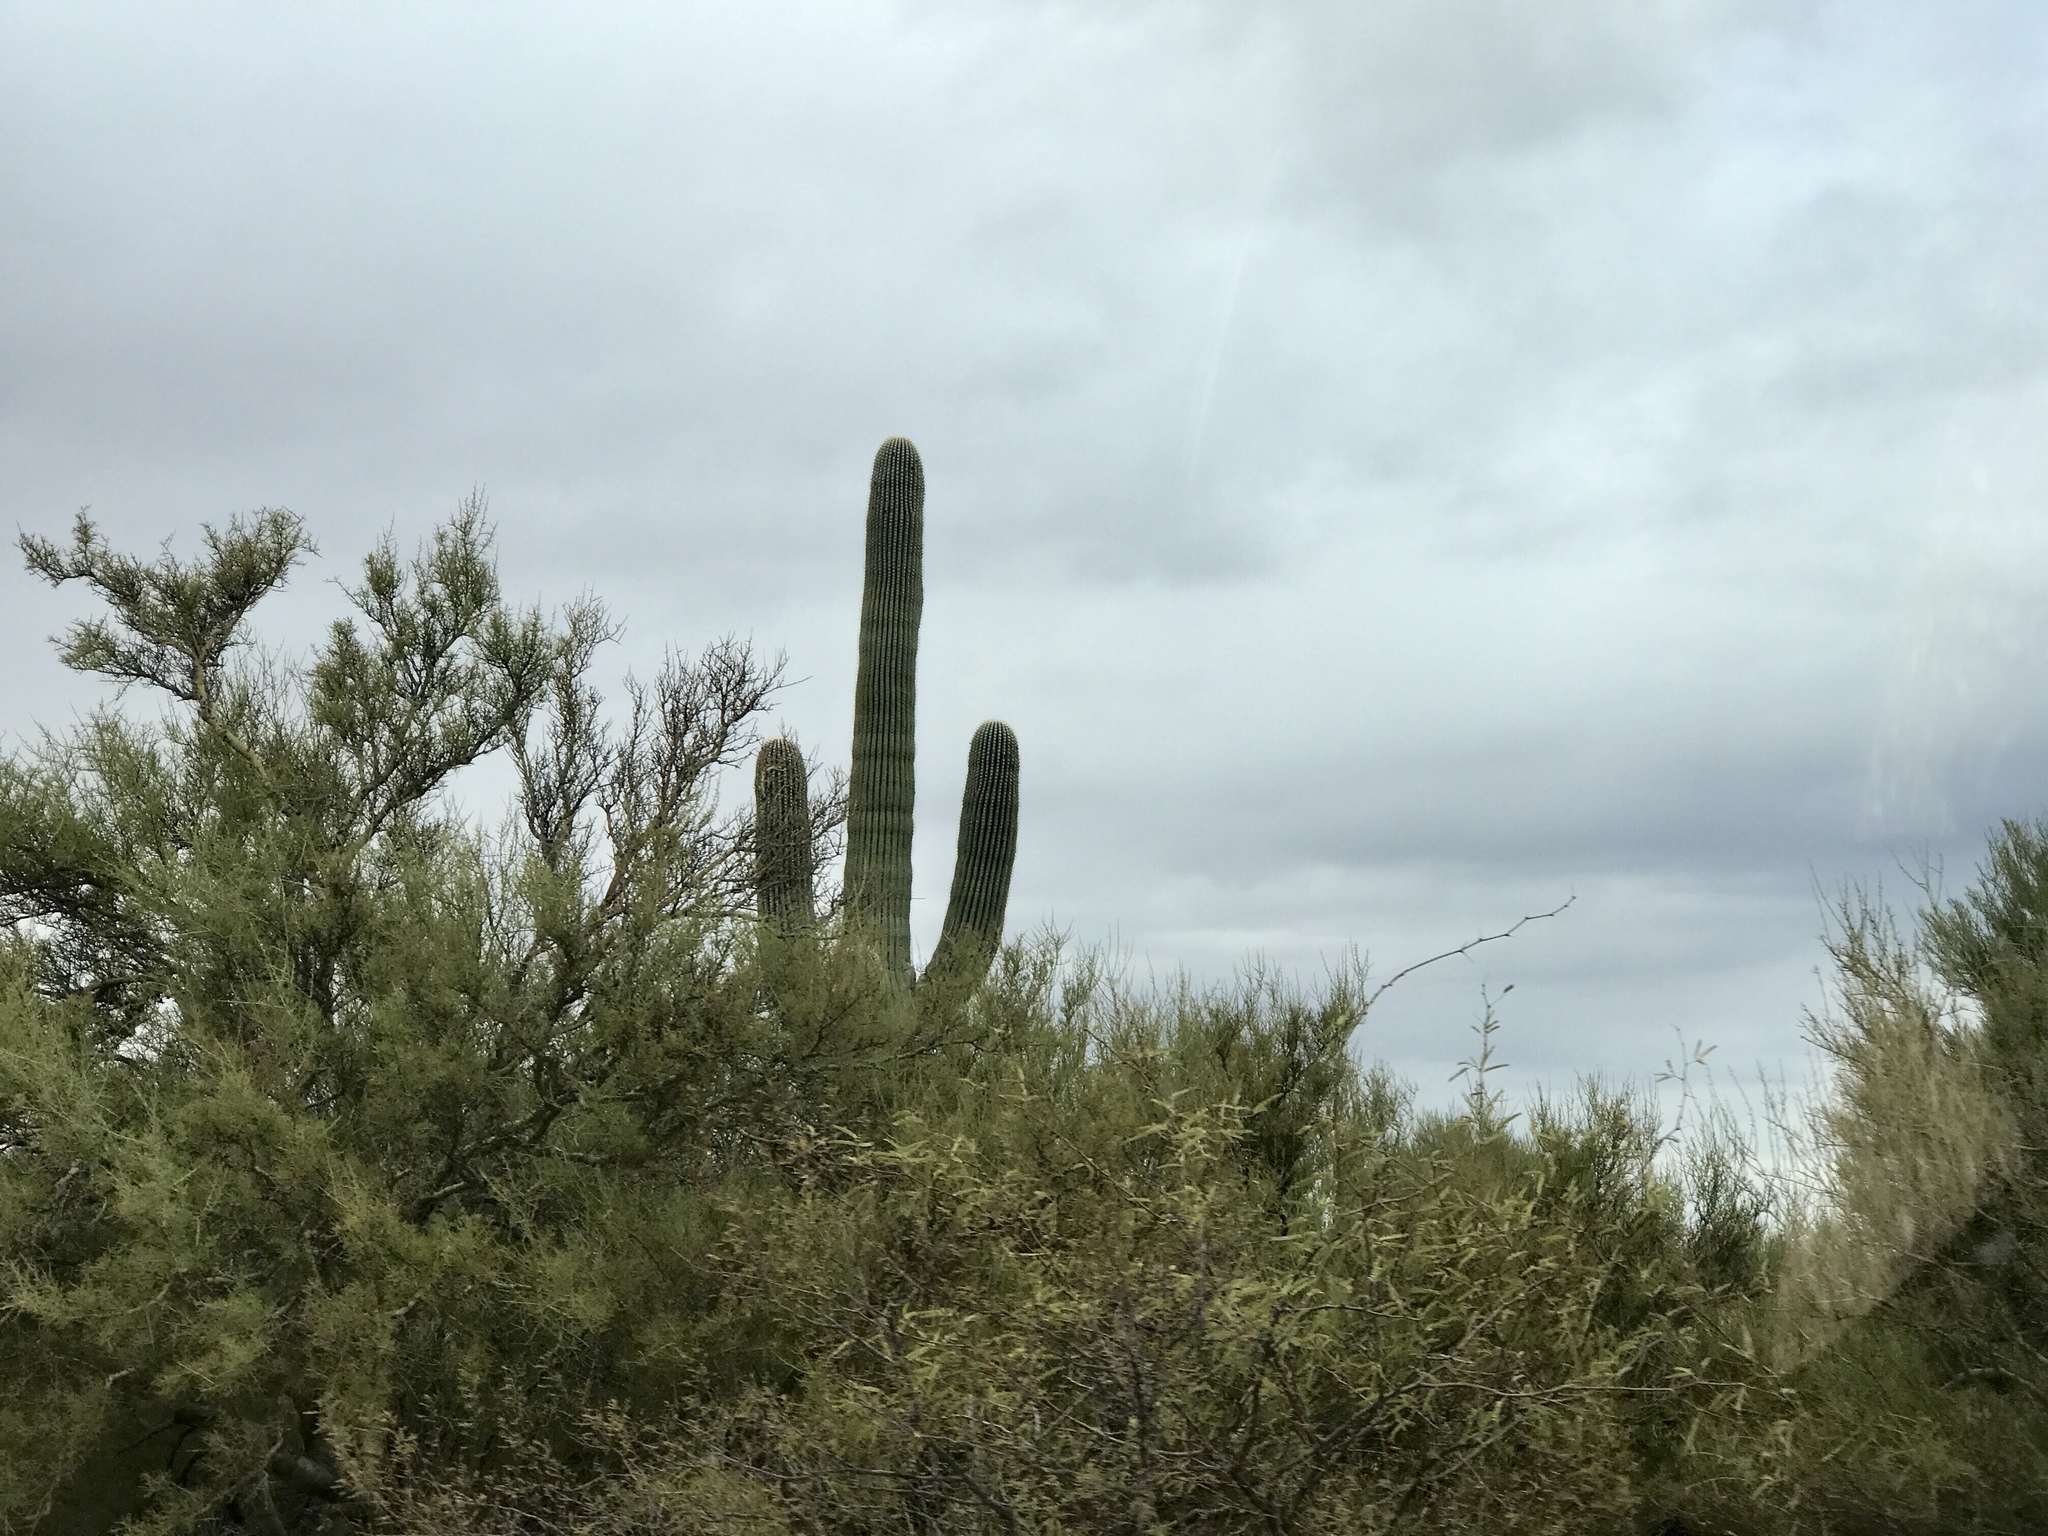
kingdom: Plantae
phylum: Tracheophyta
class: Magnoliopsida
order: Caryophyllales
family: Cactaceae
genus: Carnegiea
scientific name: Carnegiea gigantea
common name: Saguaro
